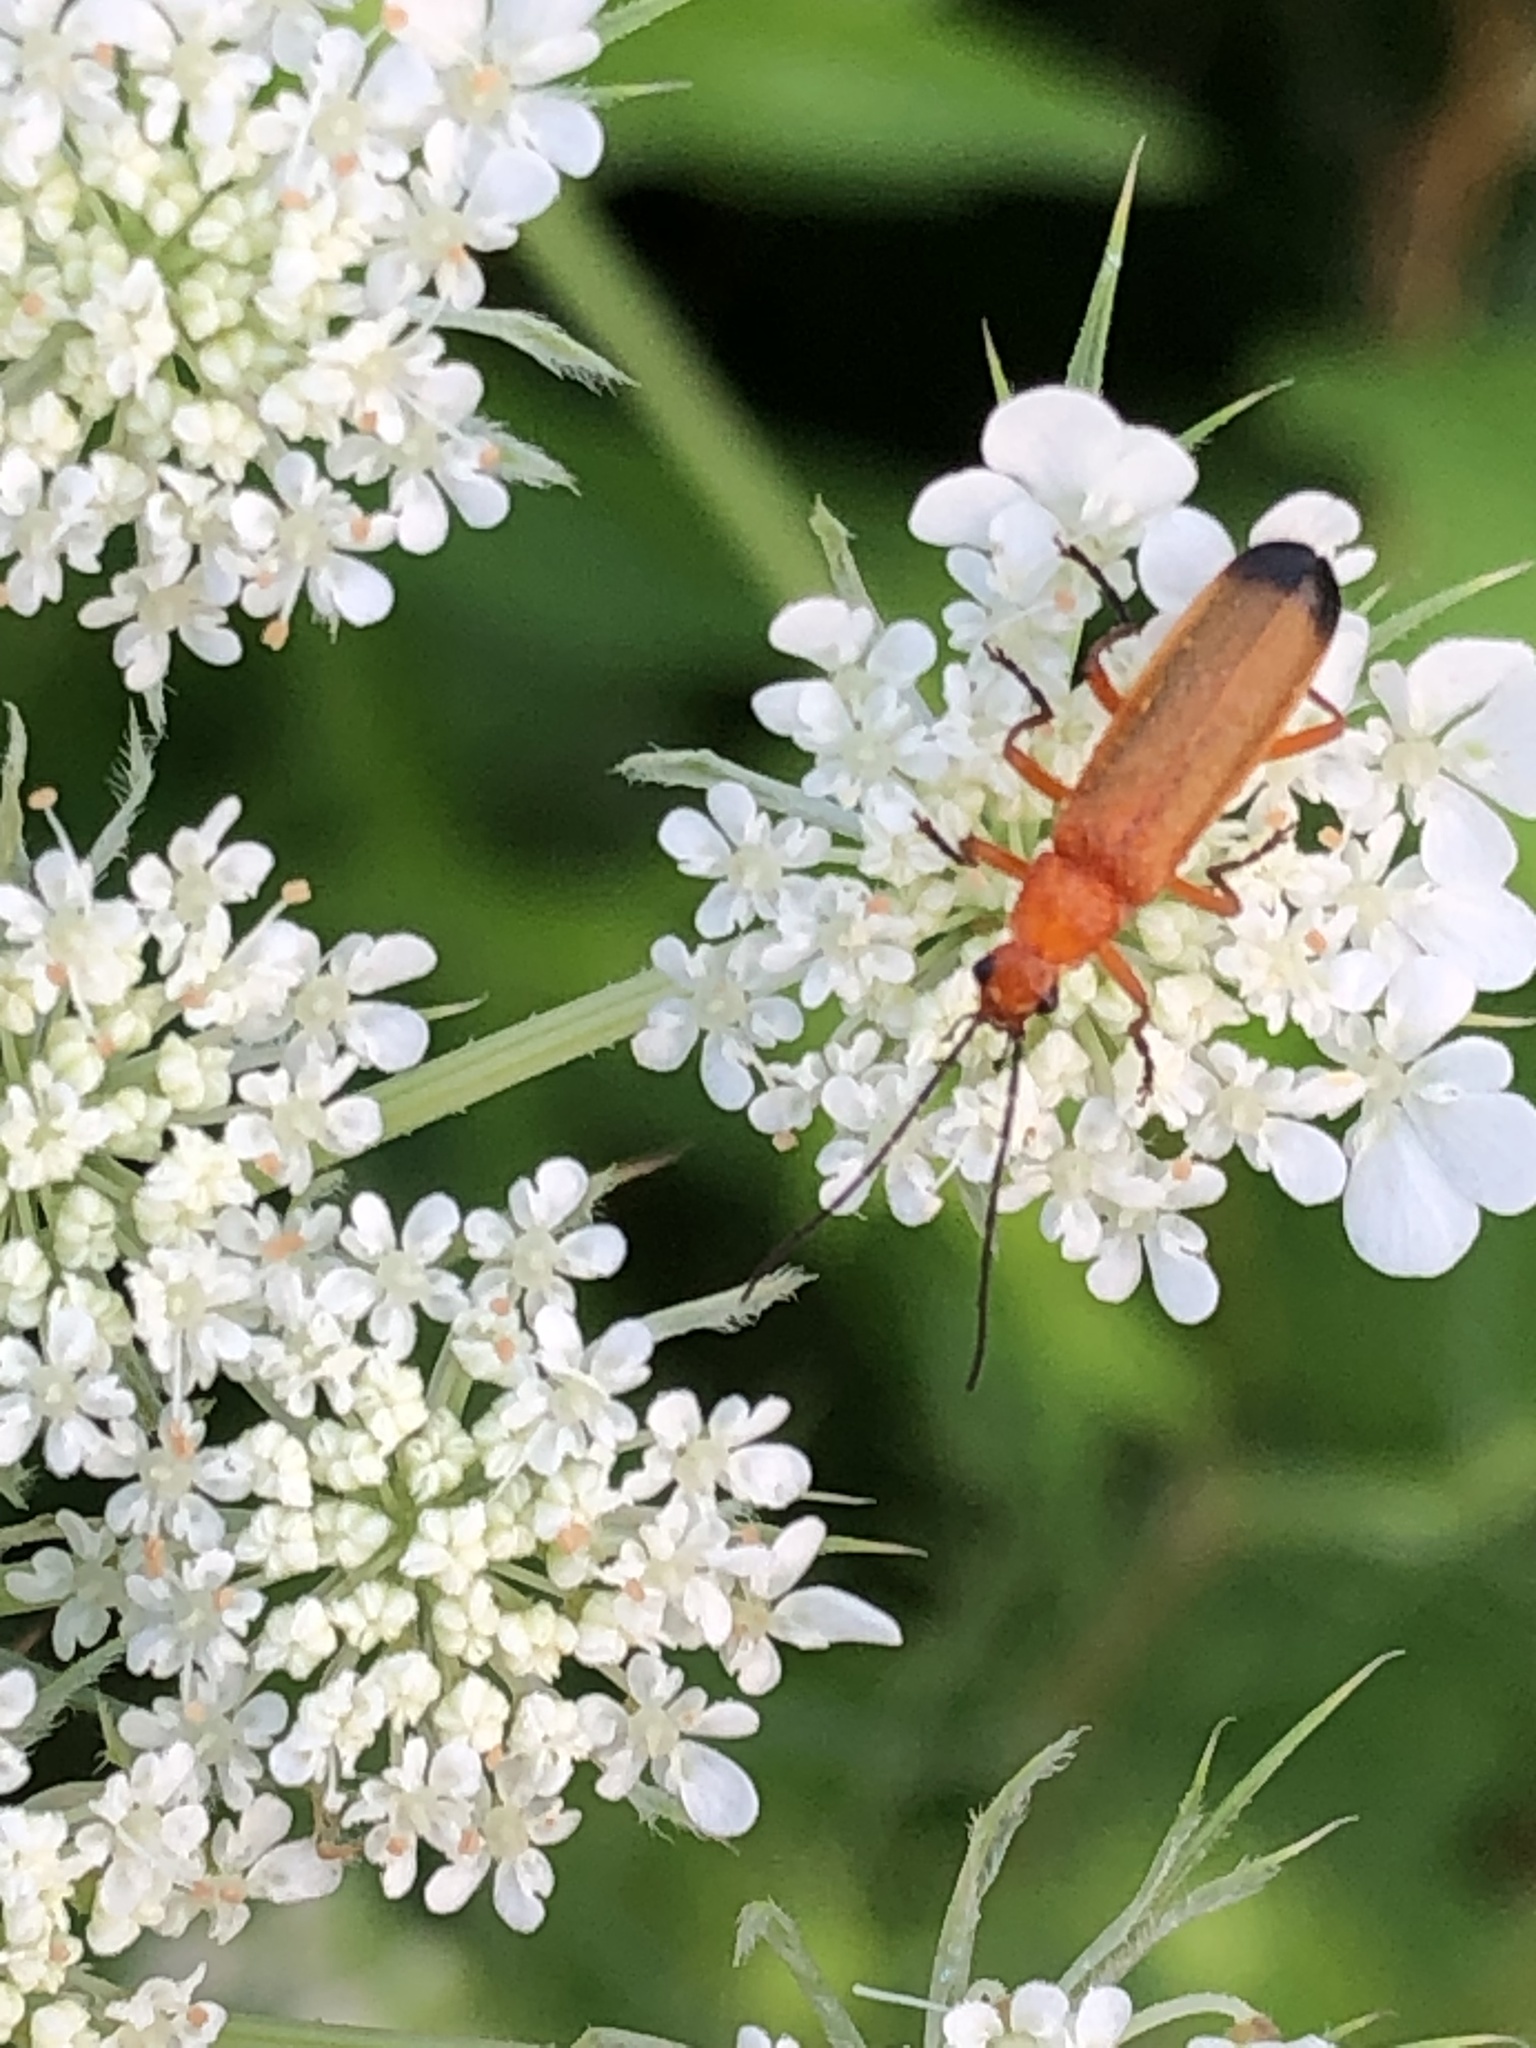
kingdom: Animalia
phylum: Arthropoda
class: Insecta
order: Coleoptera
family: Cantharidae
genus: Rhagonycha
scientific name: Rhagonycha fulva
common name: Common red soldier beetle
